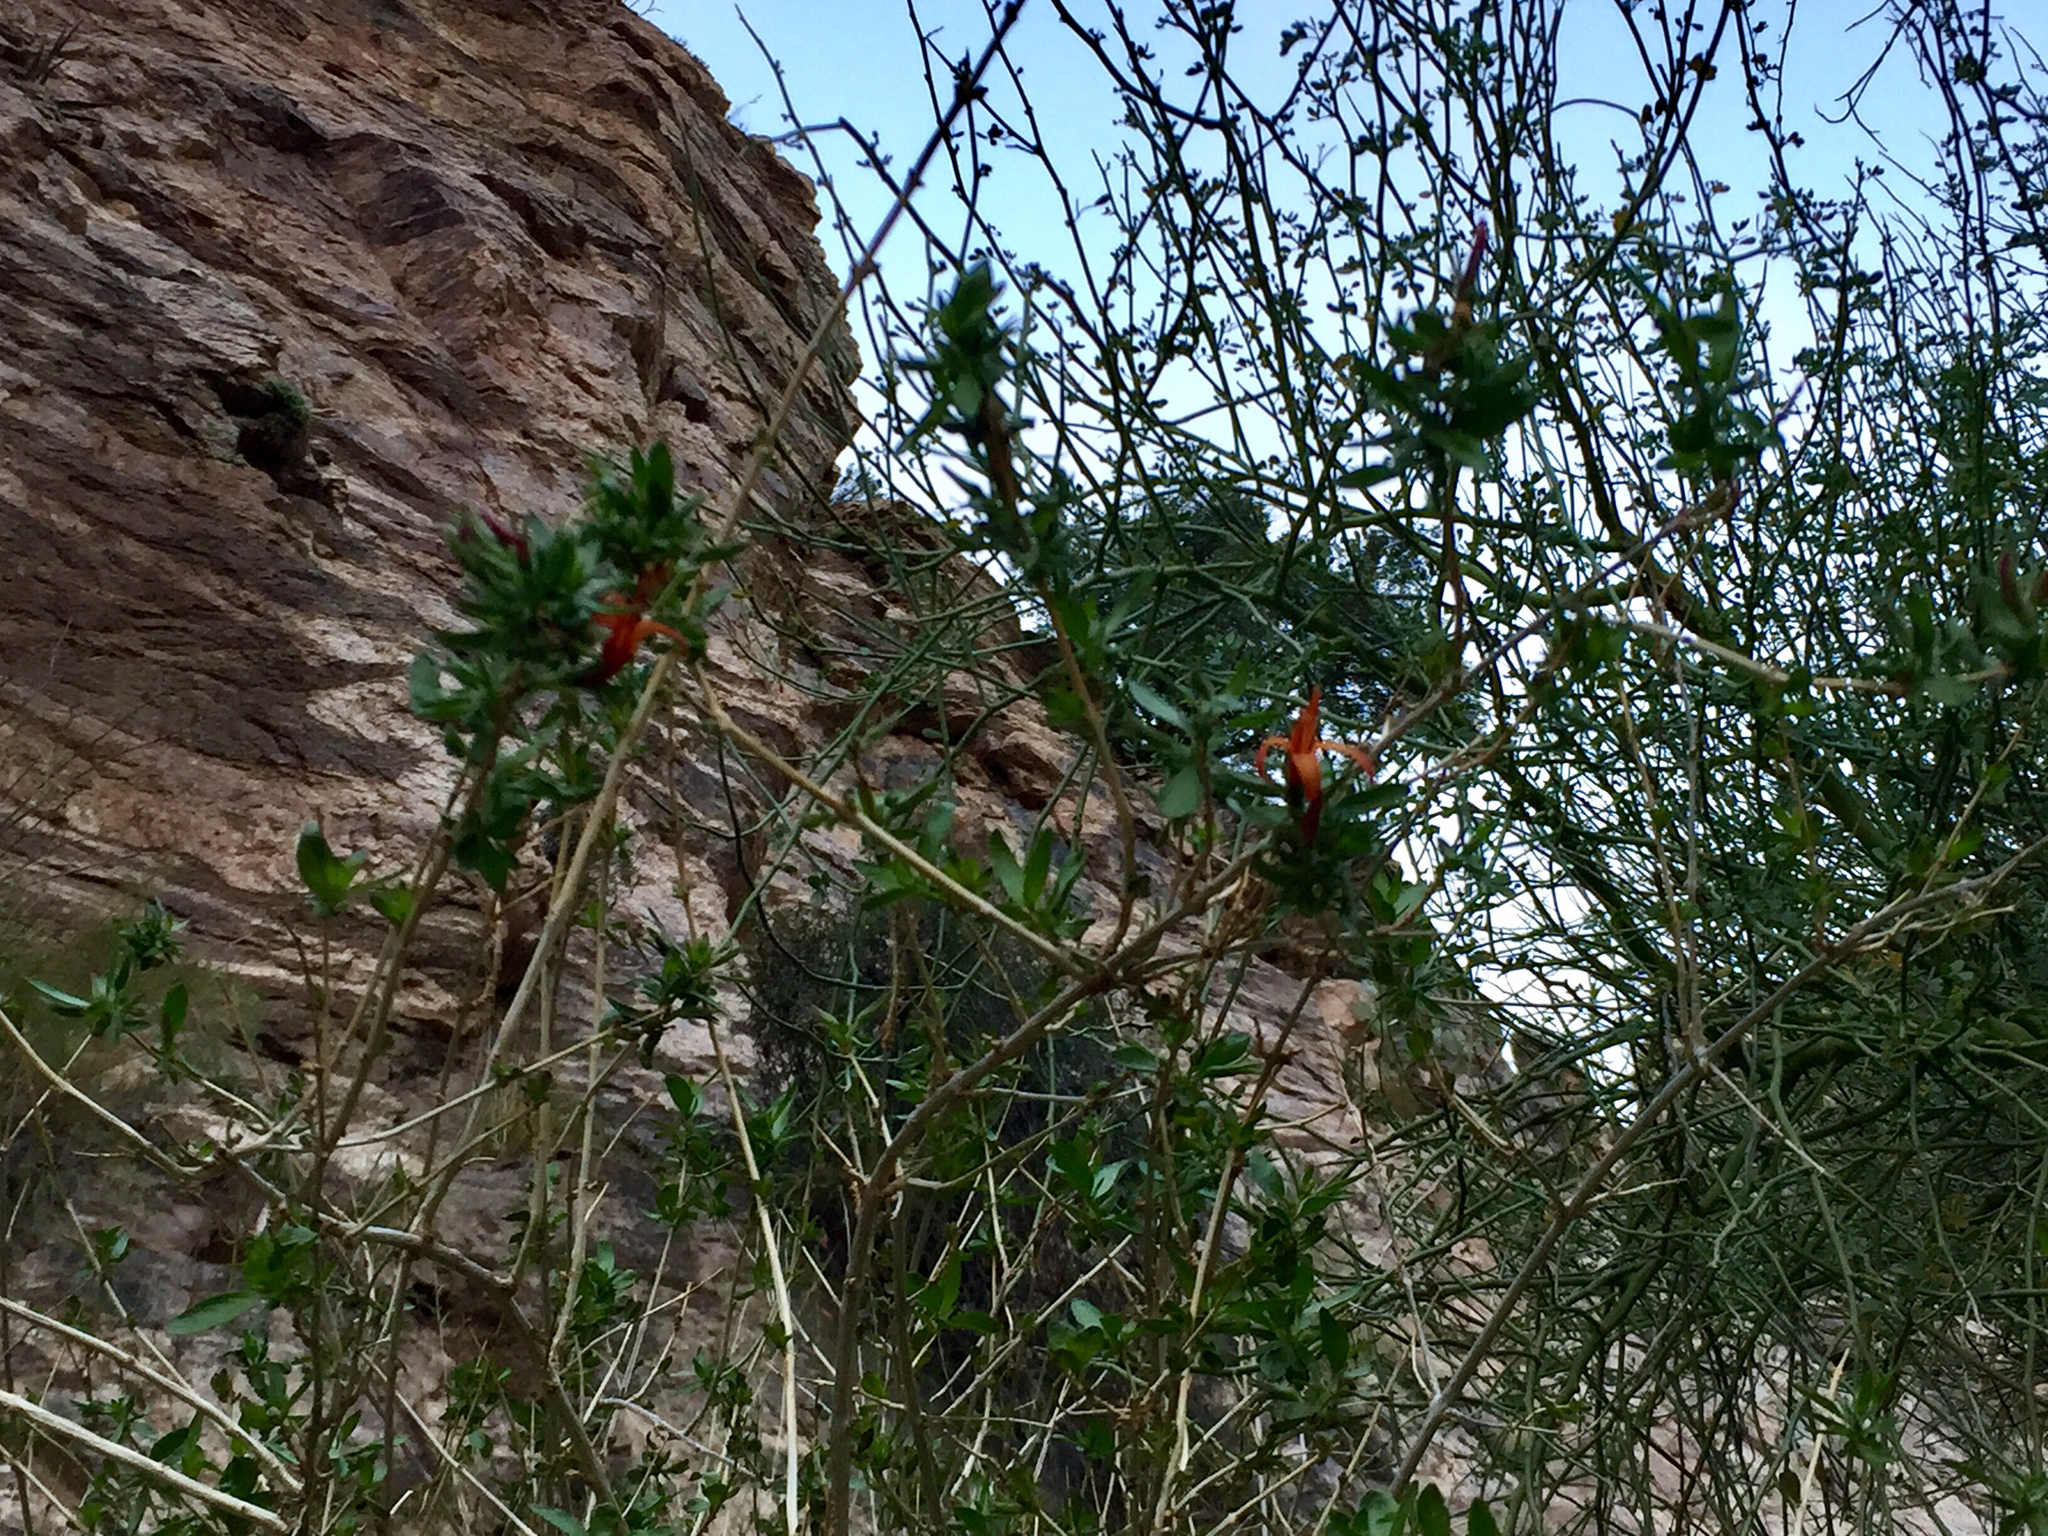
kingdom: Plantae
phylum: Tracheophyta
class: Magnoliopsida
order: Lamiales
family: Acanthaceae
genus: Anisacanthus
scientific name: Anisacanthus thurberi
